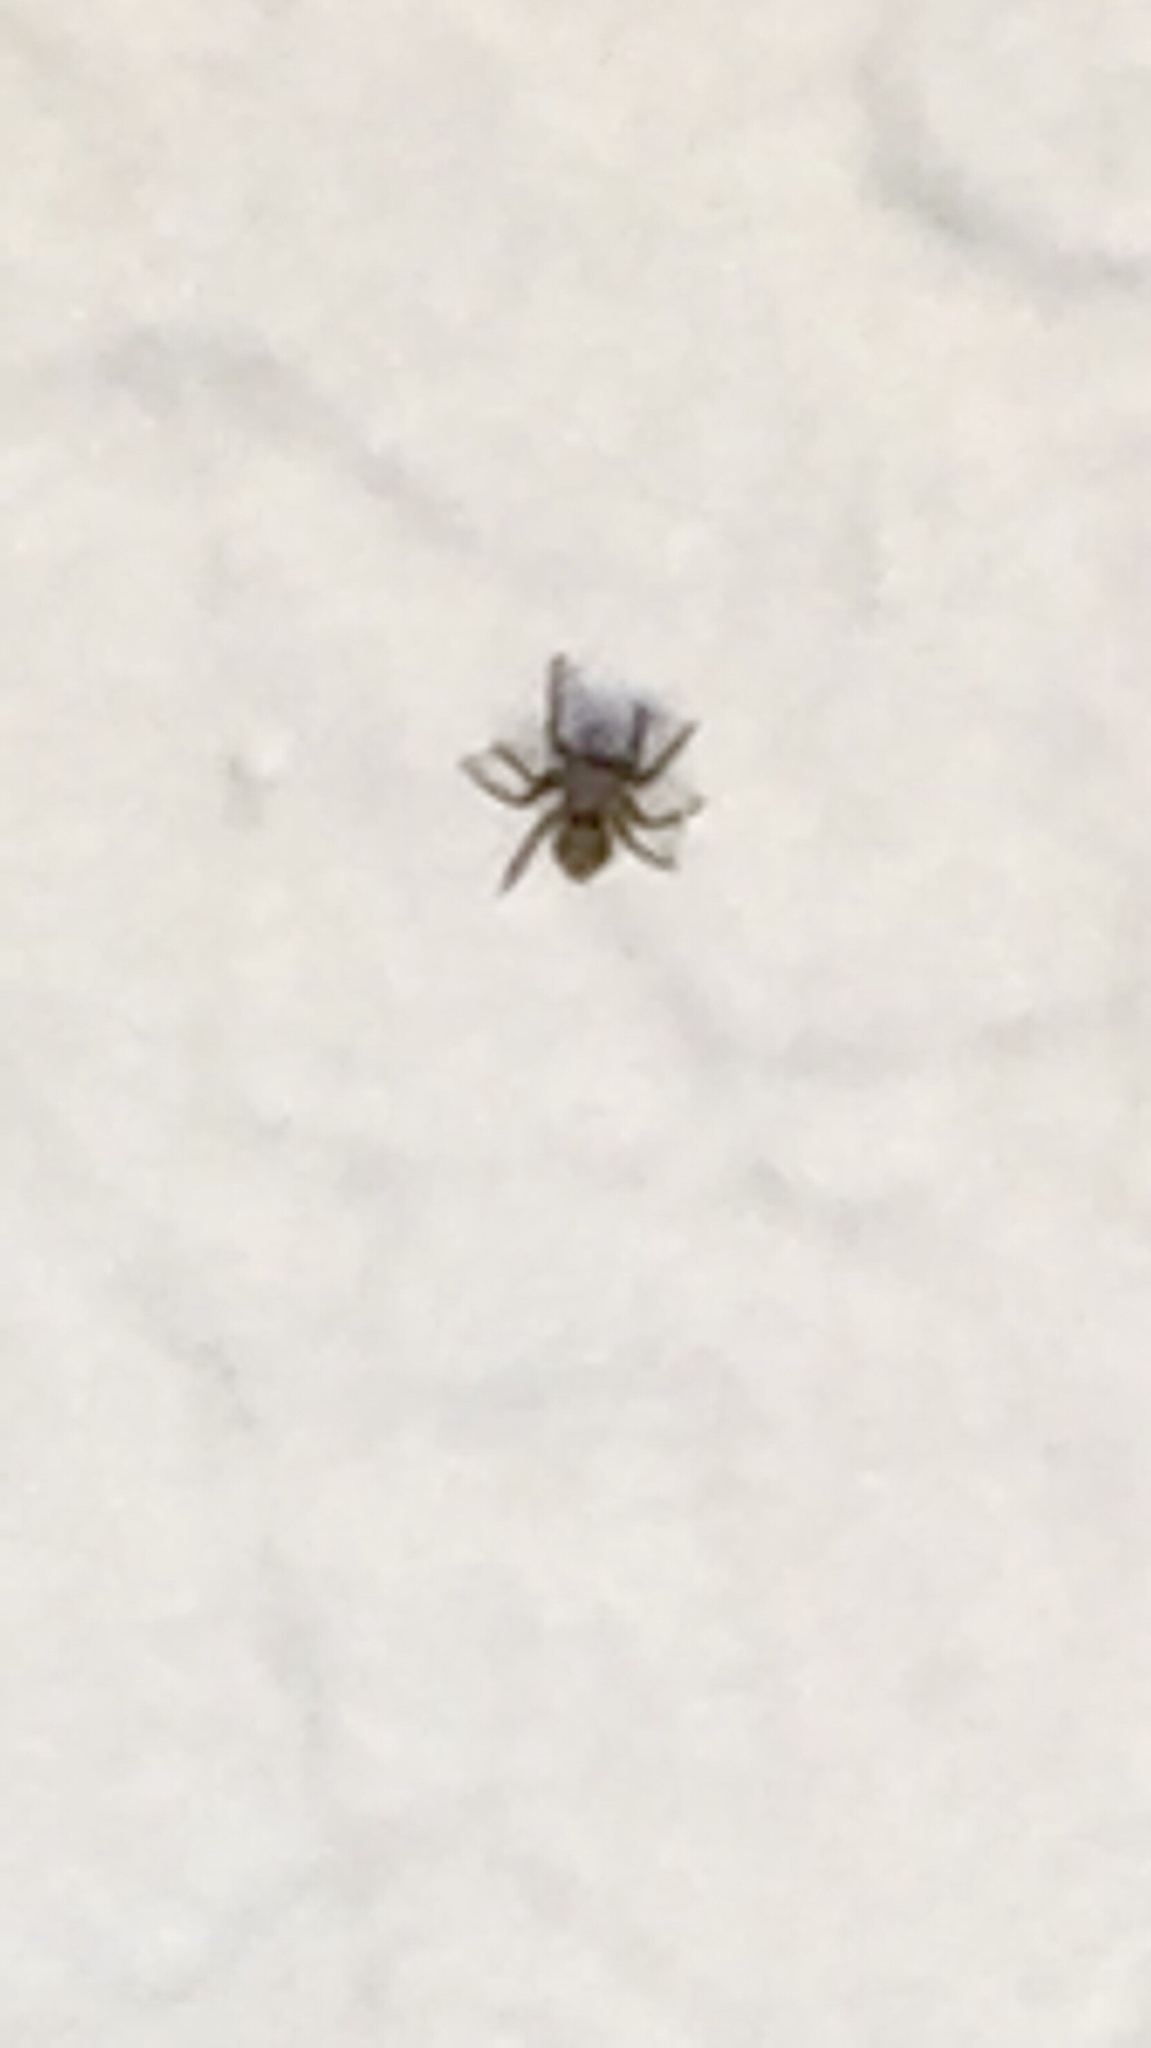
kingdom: Animalia
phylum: Arthropoda
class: Arachnida
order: Araneae
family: Salticidae
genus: Pseudeuophrys
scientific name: Pseudeuophrys lanigera
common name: Jumping spider
